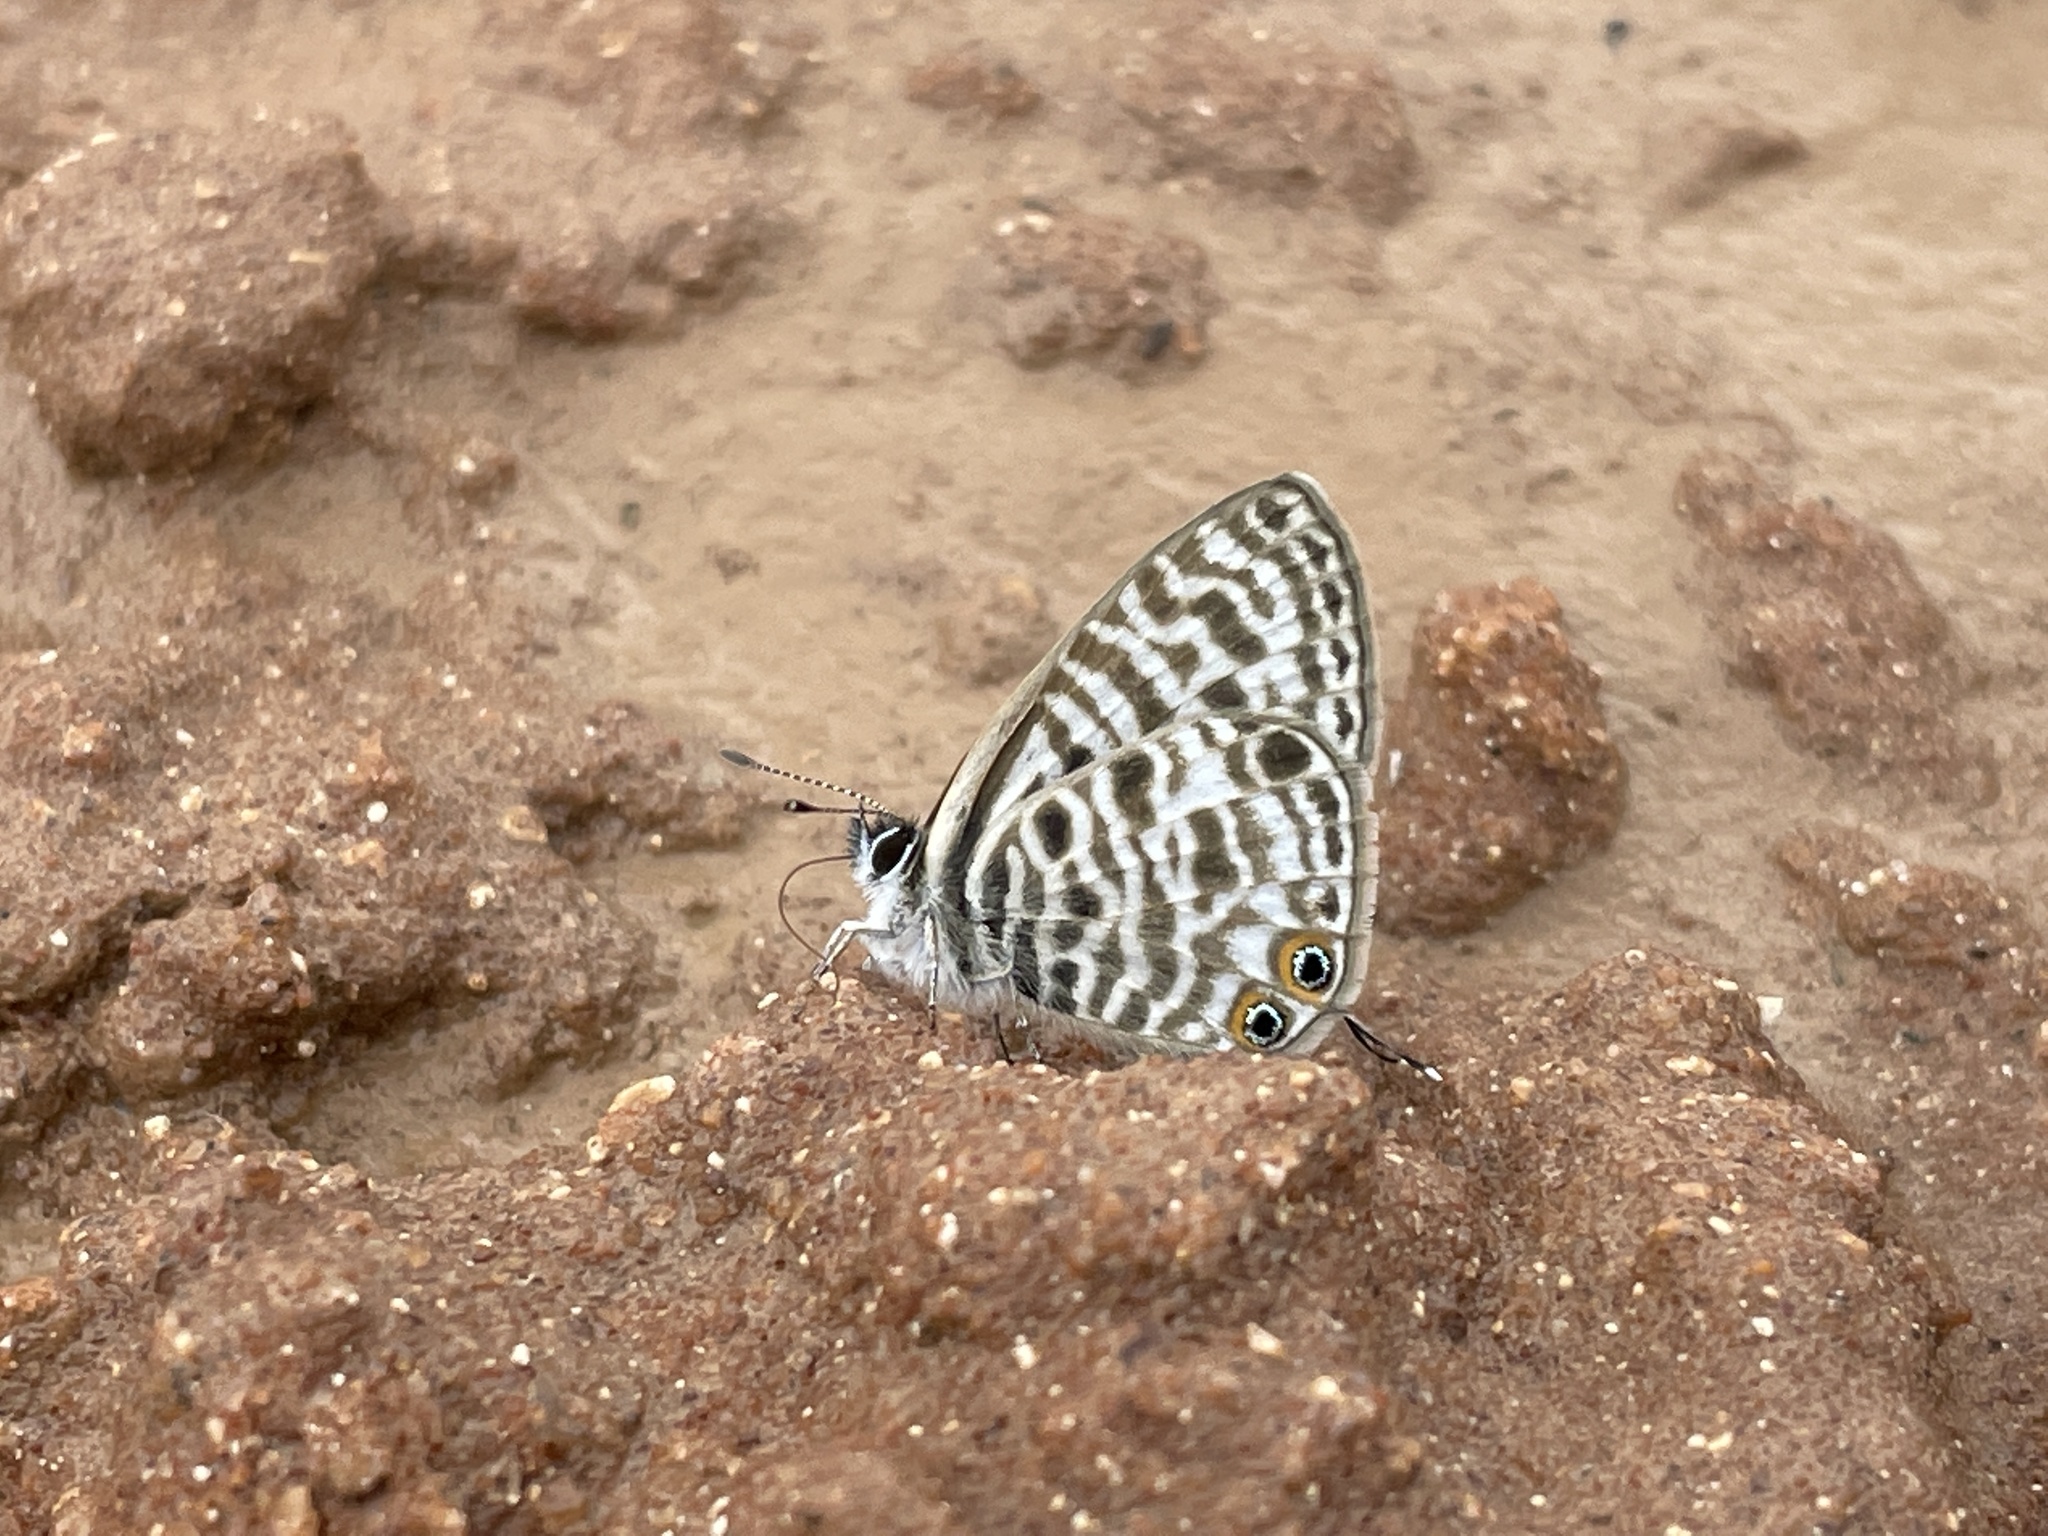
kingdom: Animalia
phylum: Arthropoda
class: Insecta
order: Lepidoptera
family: Lycaenidae
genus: Leptotes
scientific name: Leptotes
